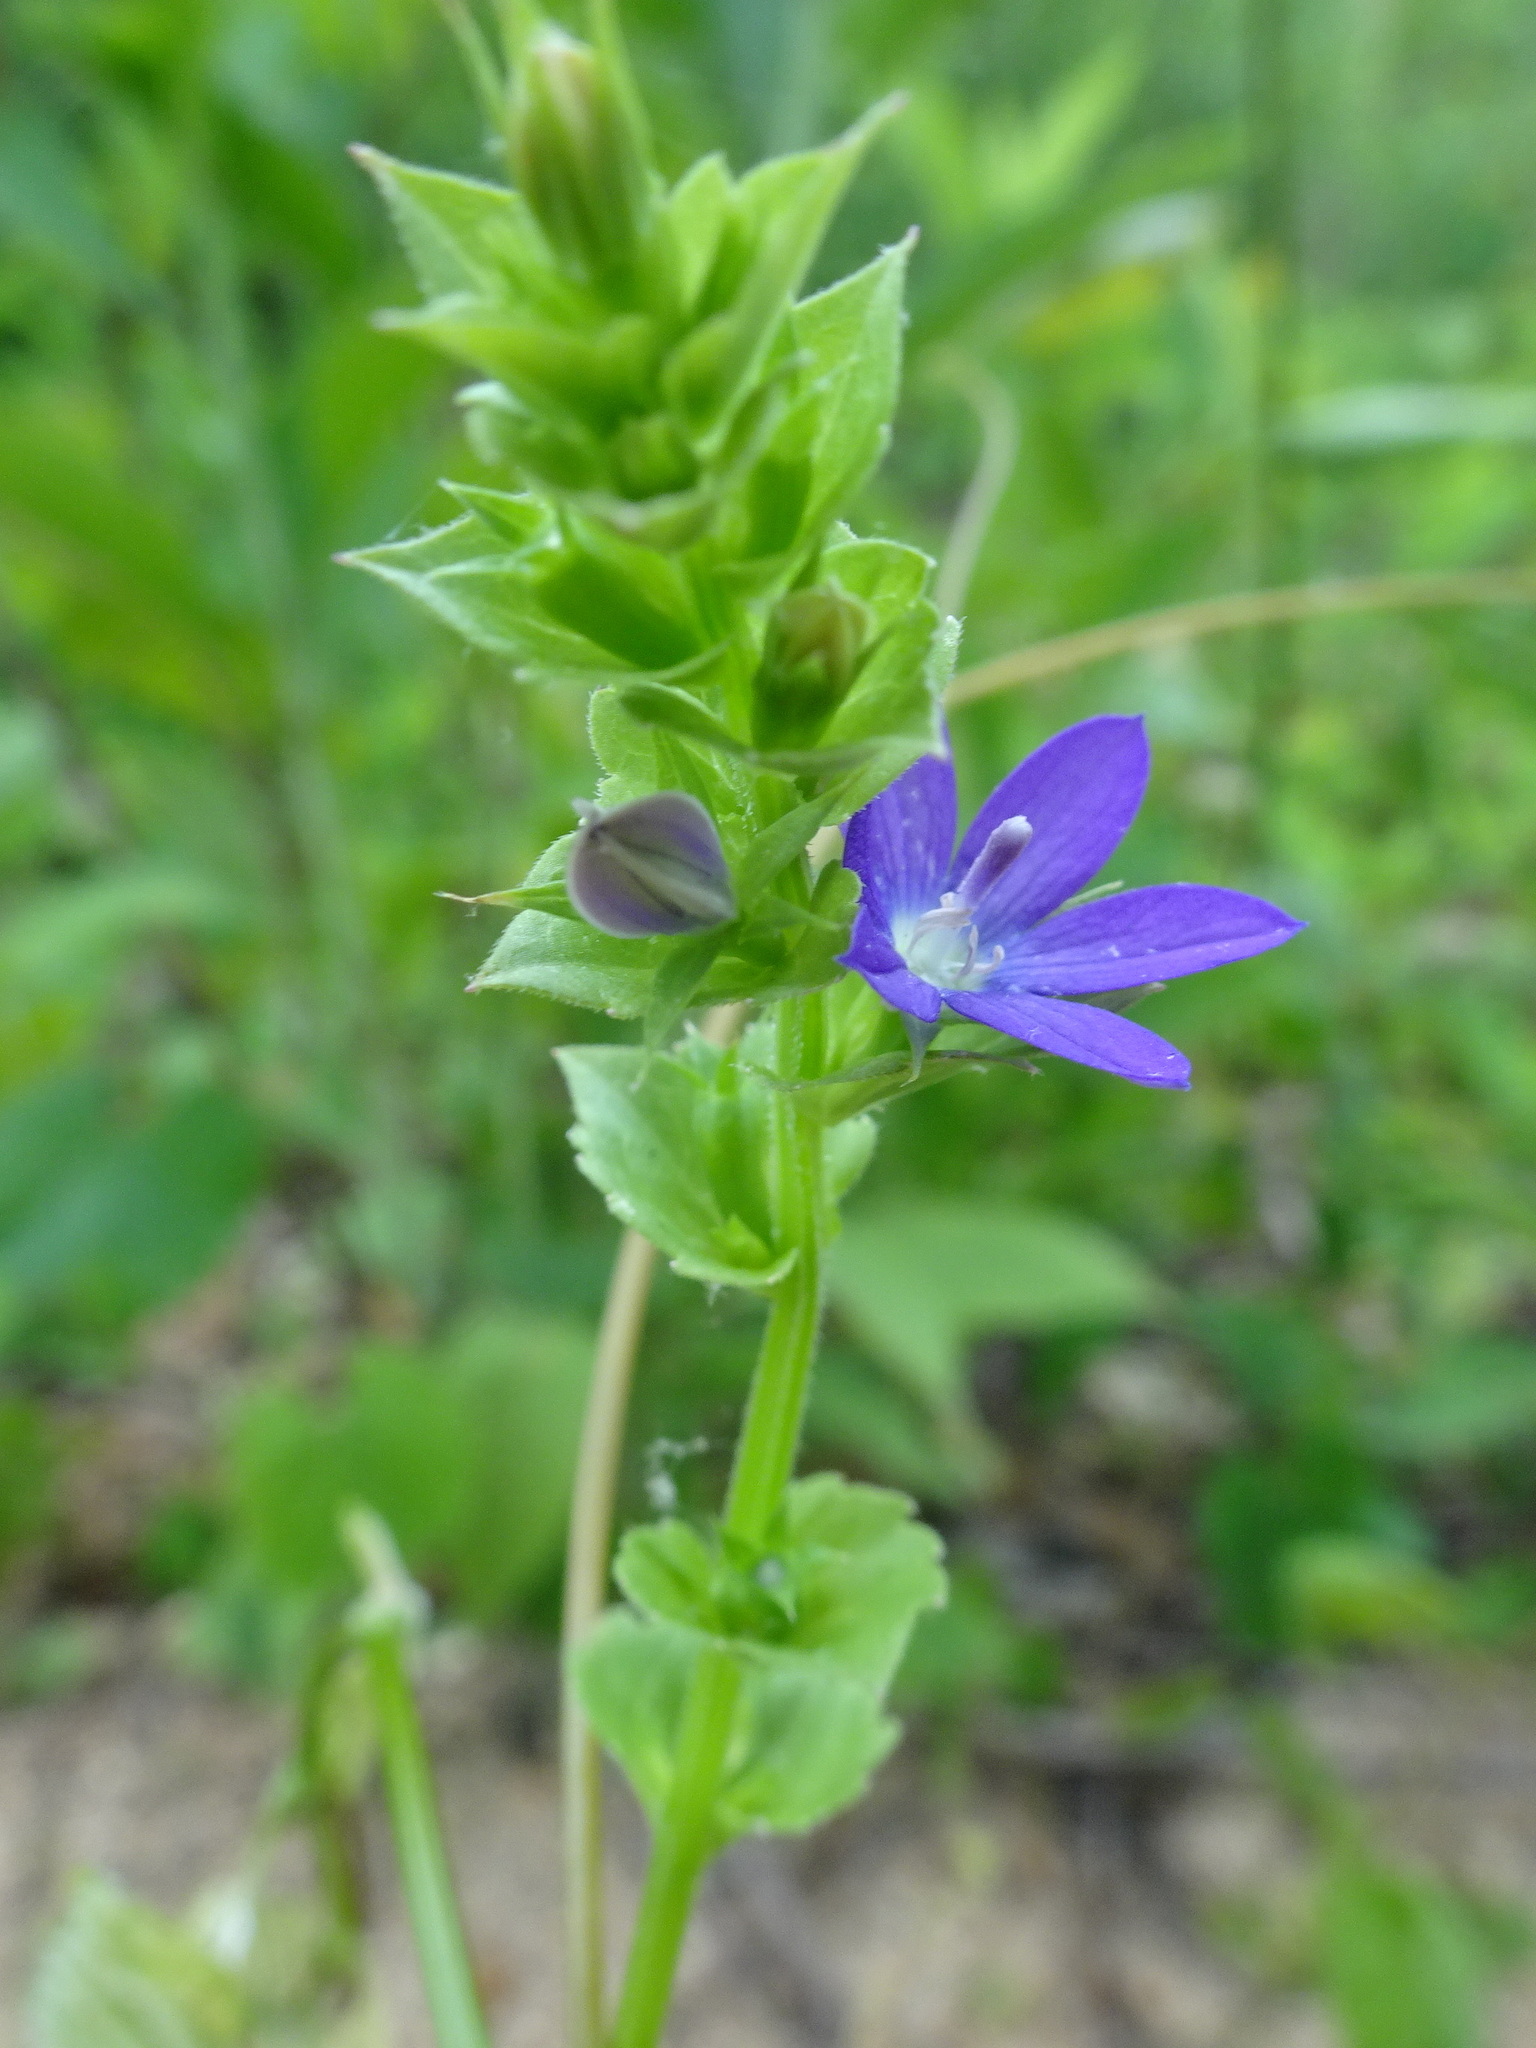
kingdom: Plantae
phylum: Tracheophyta
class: Magnoliopsida
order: Asterales
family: Campanulaceae
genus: Triodanis
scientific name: Triodanis perfoliata
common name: Clasping venus' looking-glass
